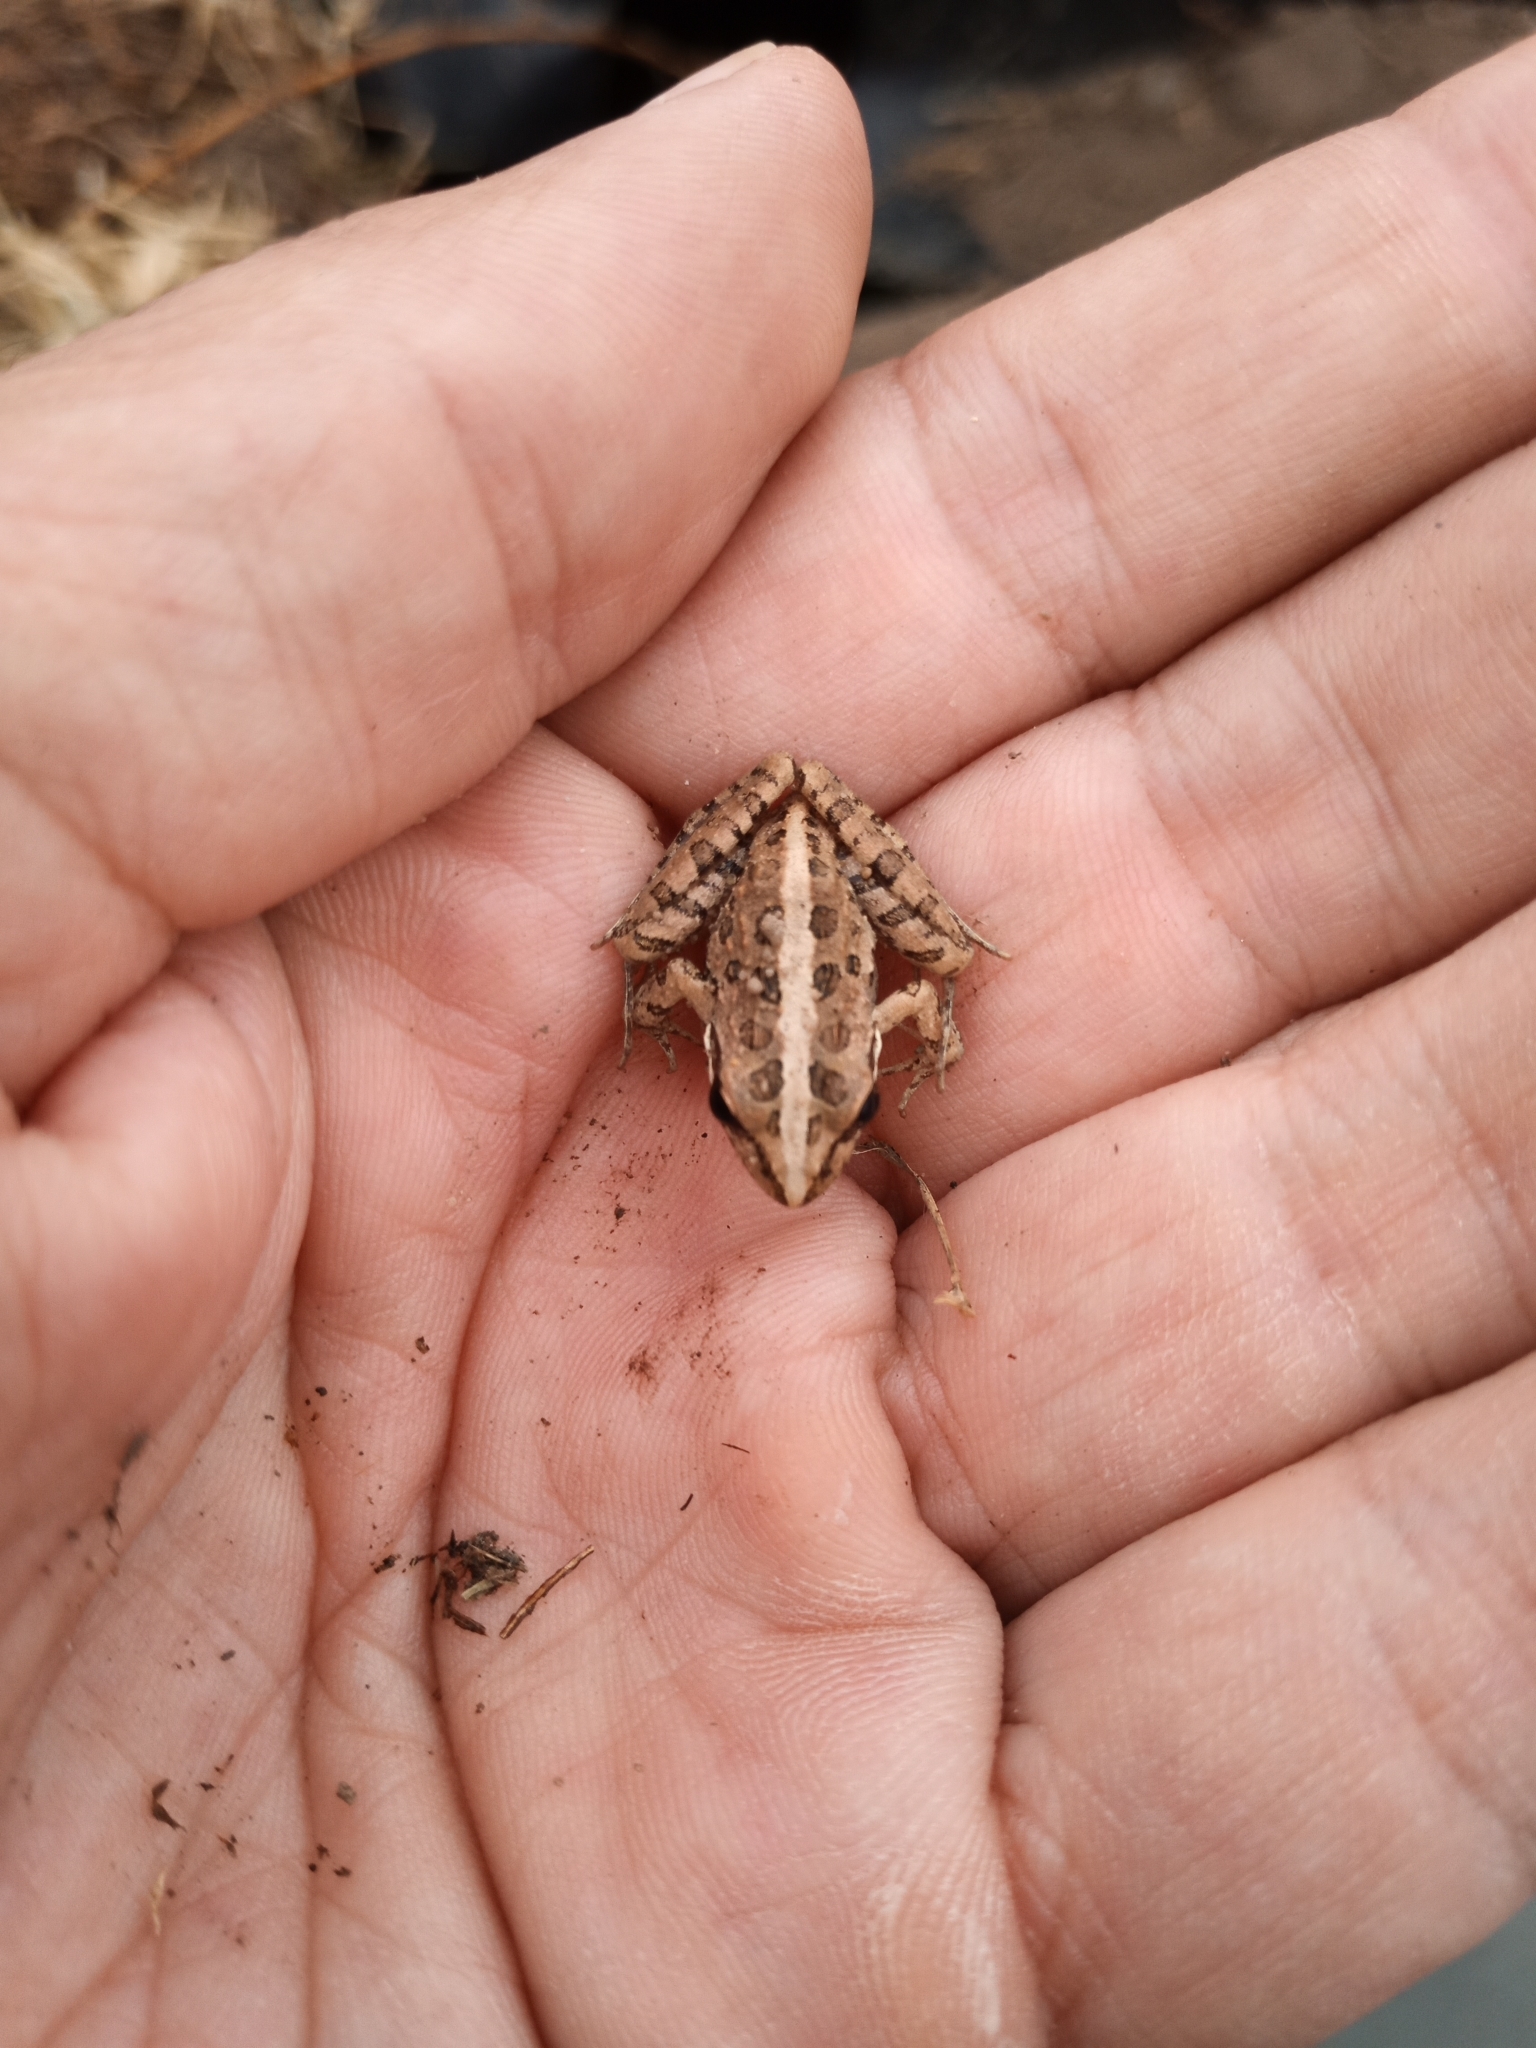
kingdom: Animalia
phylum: Chordata
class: Amphibia
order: Anura
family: Pyxicephalidae
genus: Strongylopus
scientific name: Strongylopus grayii
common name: Gray's stream frog
